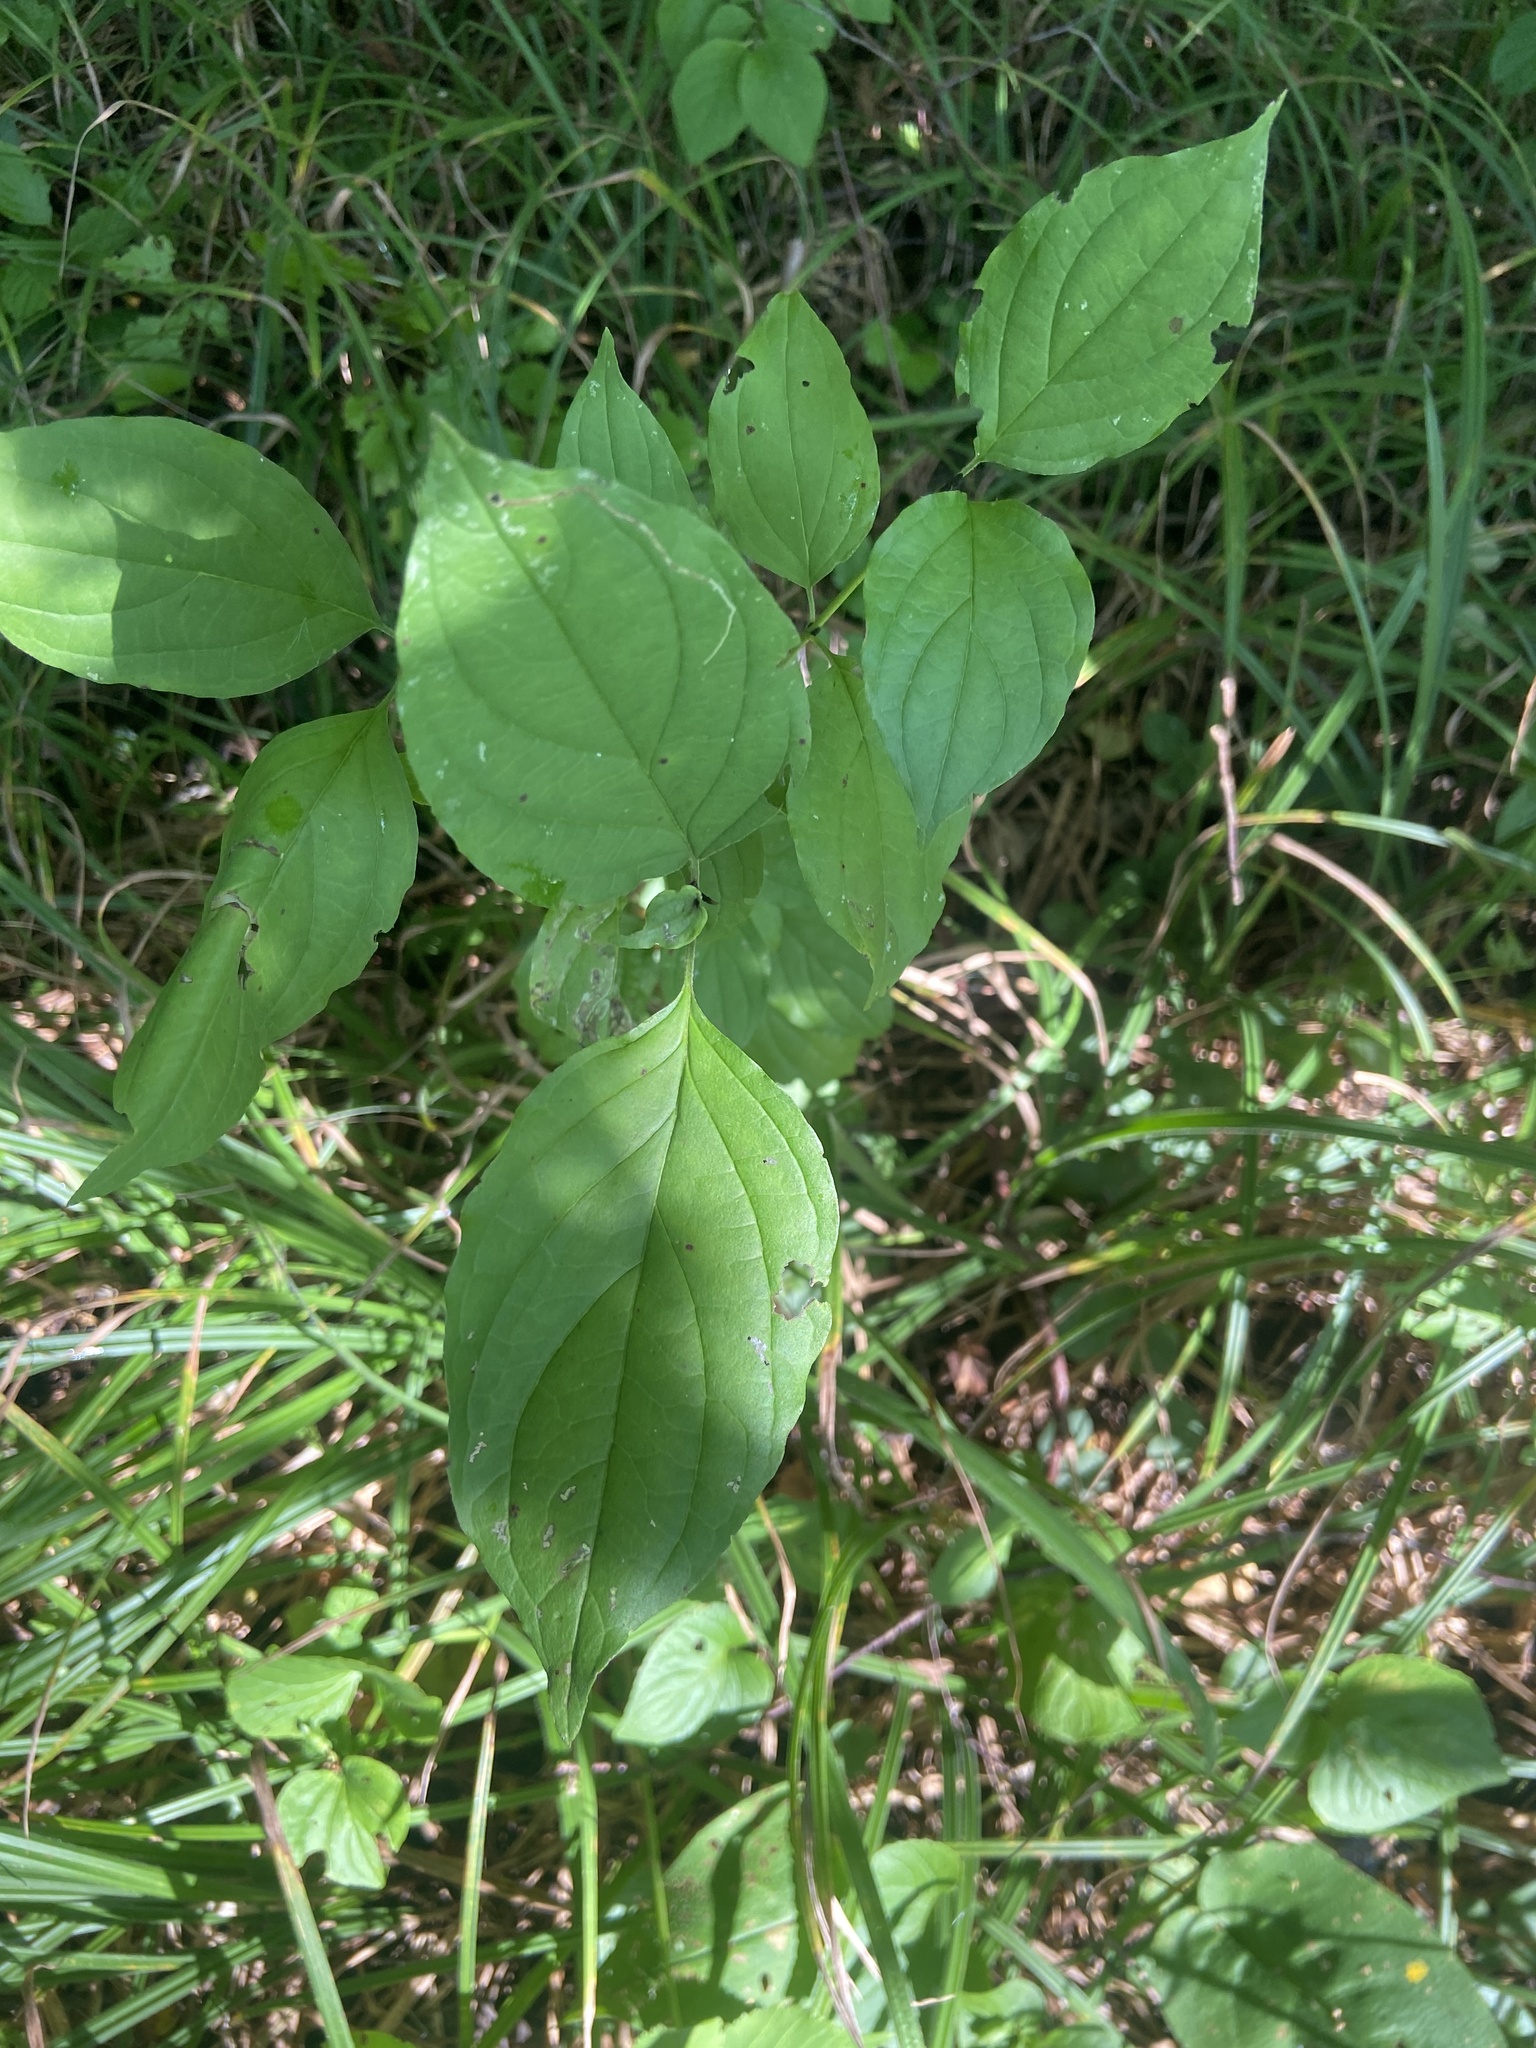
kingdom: Plantae
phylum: Tracheophyta
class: Magnoliopsida
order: Cornales
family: Cornaceae
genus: Cornus
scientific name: Cornus sanguinea
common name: Dogwood
